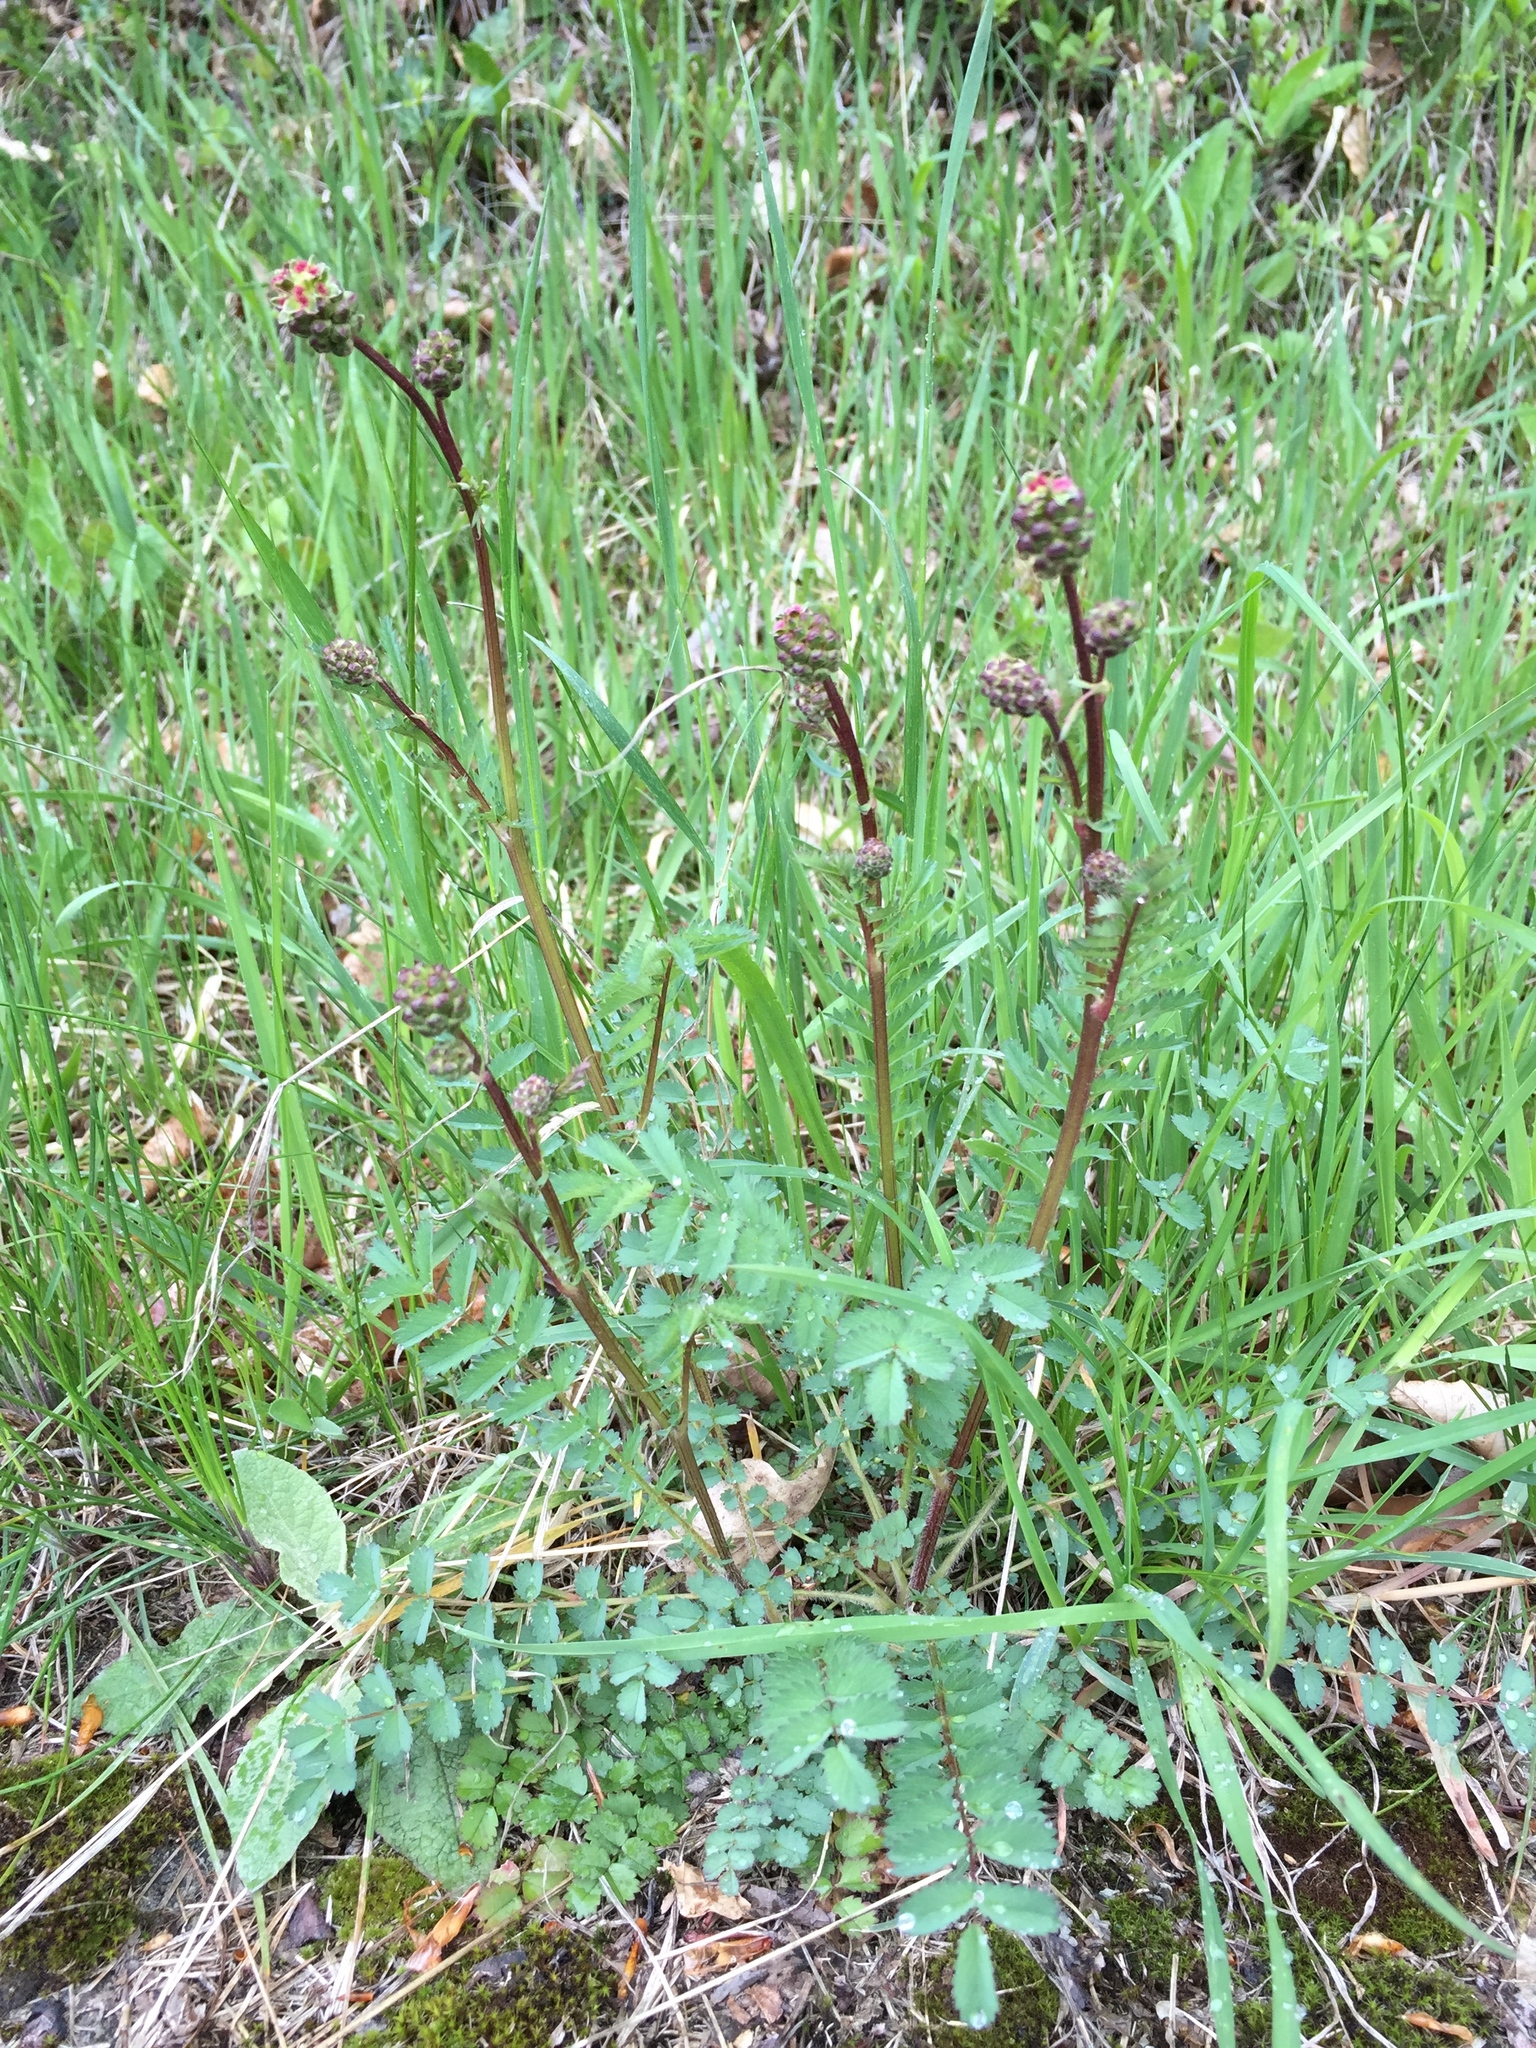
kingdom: Plantae
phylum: Tracheophyta
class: Magnoliopsida
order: Rosales
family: Rosaceae
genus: Poterium
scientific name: Poterium sanguisorba
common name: Salad burnet
